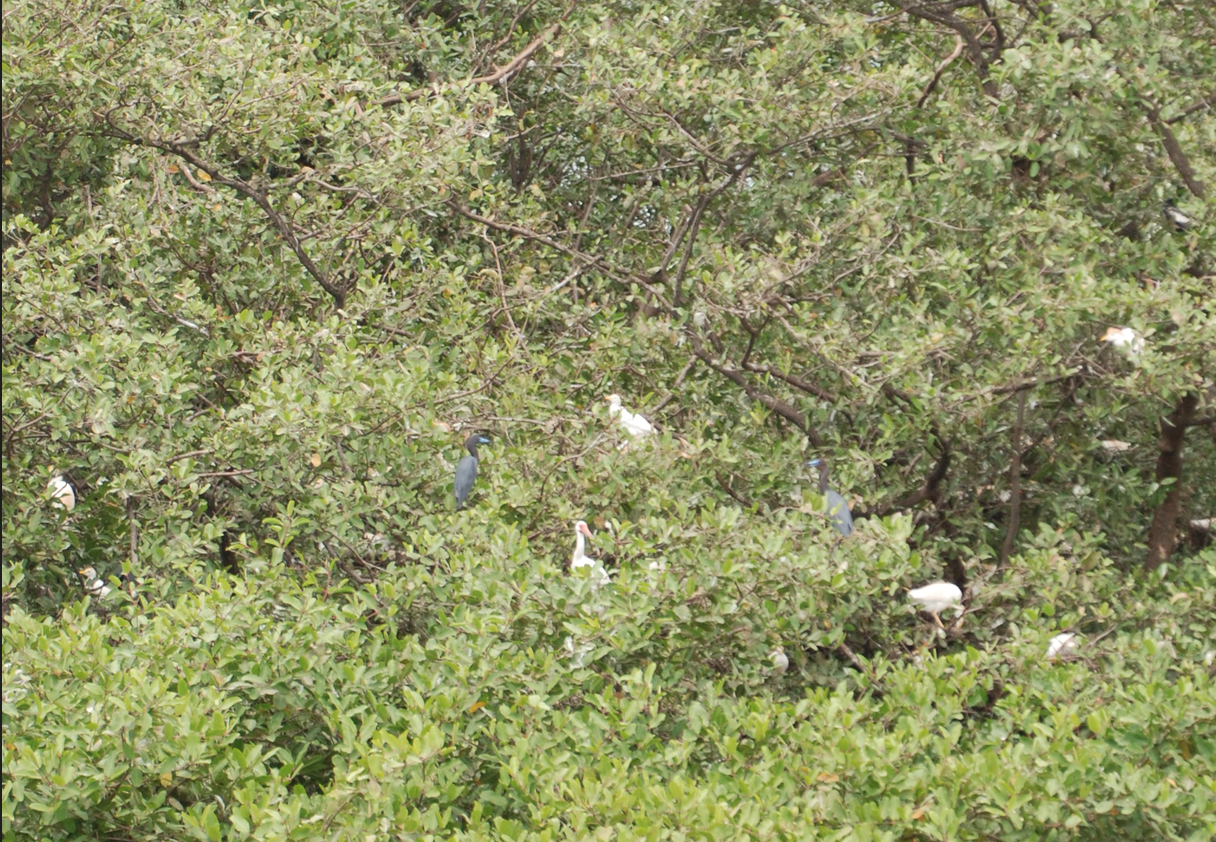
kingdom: Animalia
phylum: Chordata
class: Aves
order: Pelecaniformes
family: Ardeidae
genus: Egretta
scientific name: Egretta caerulea
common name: Little blue heron
